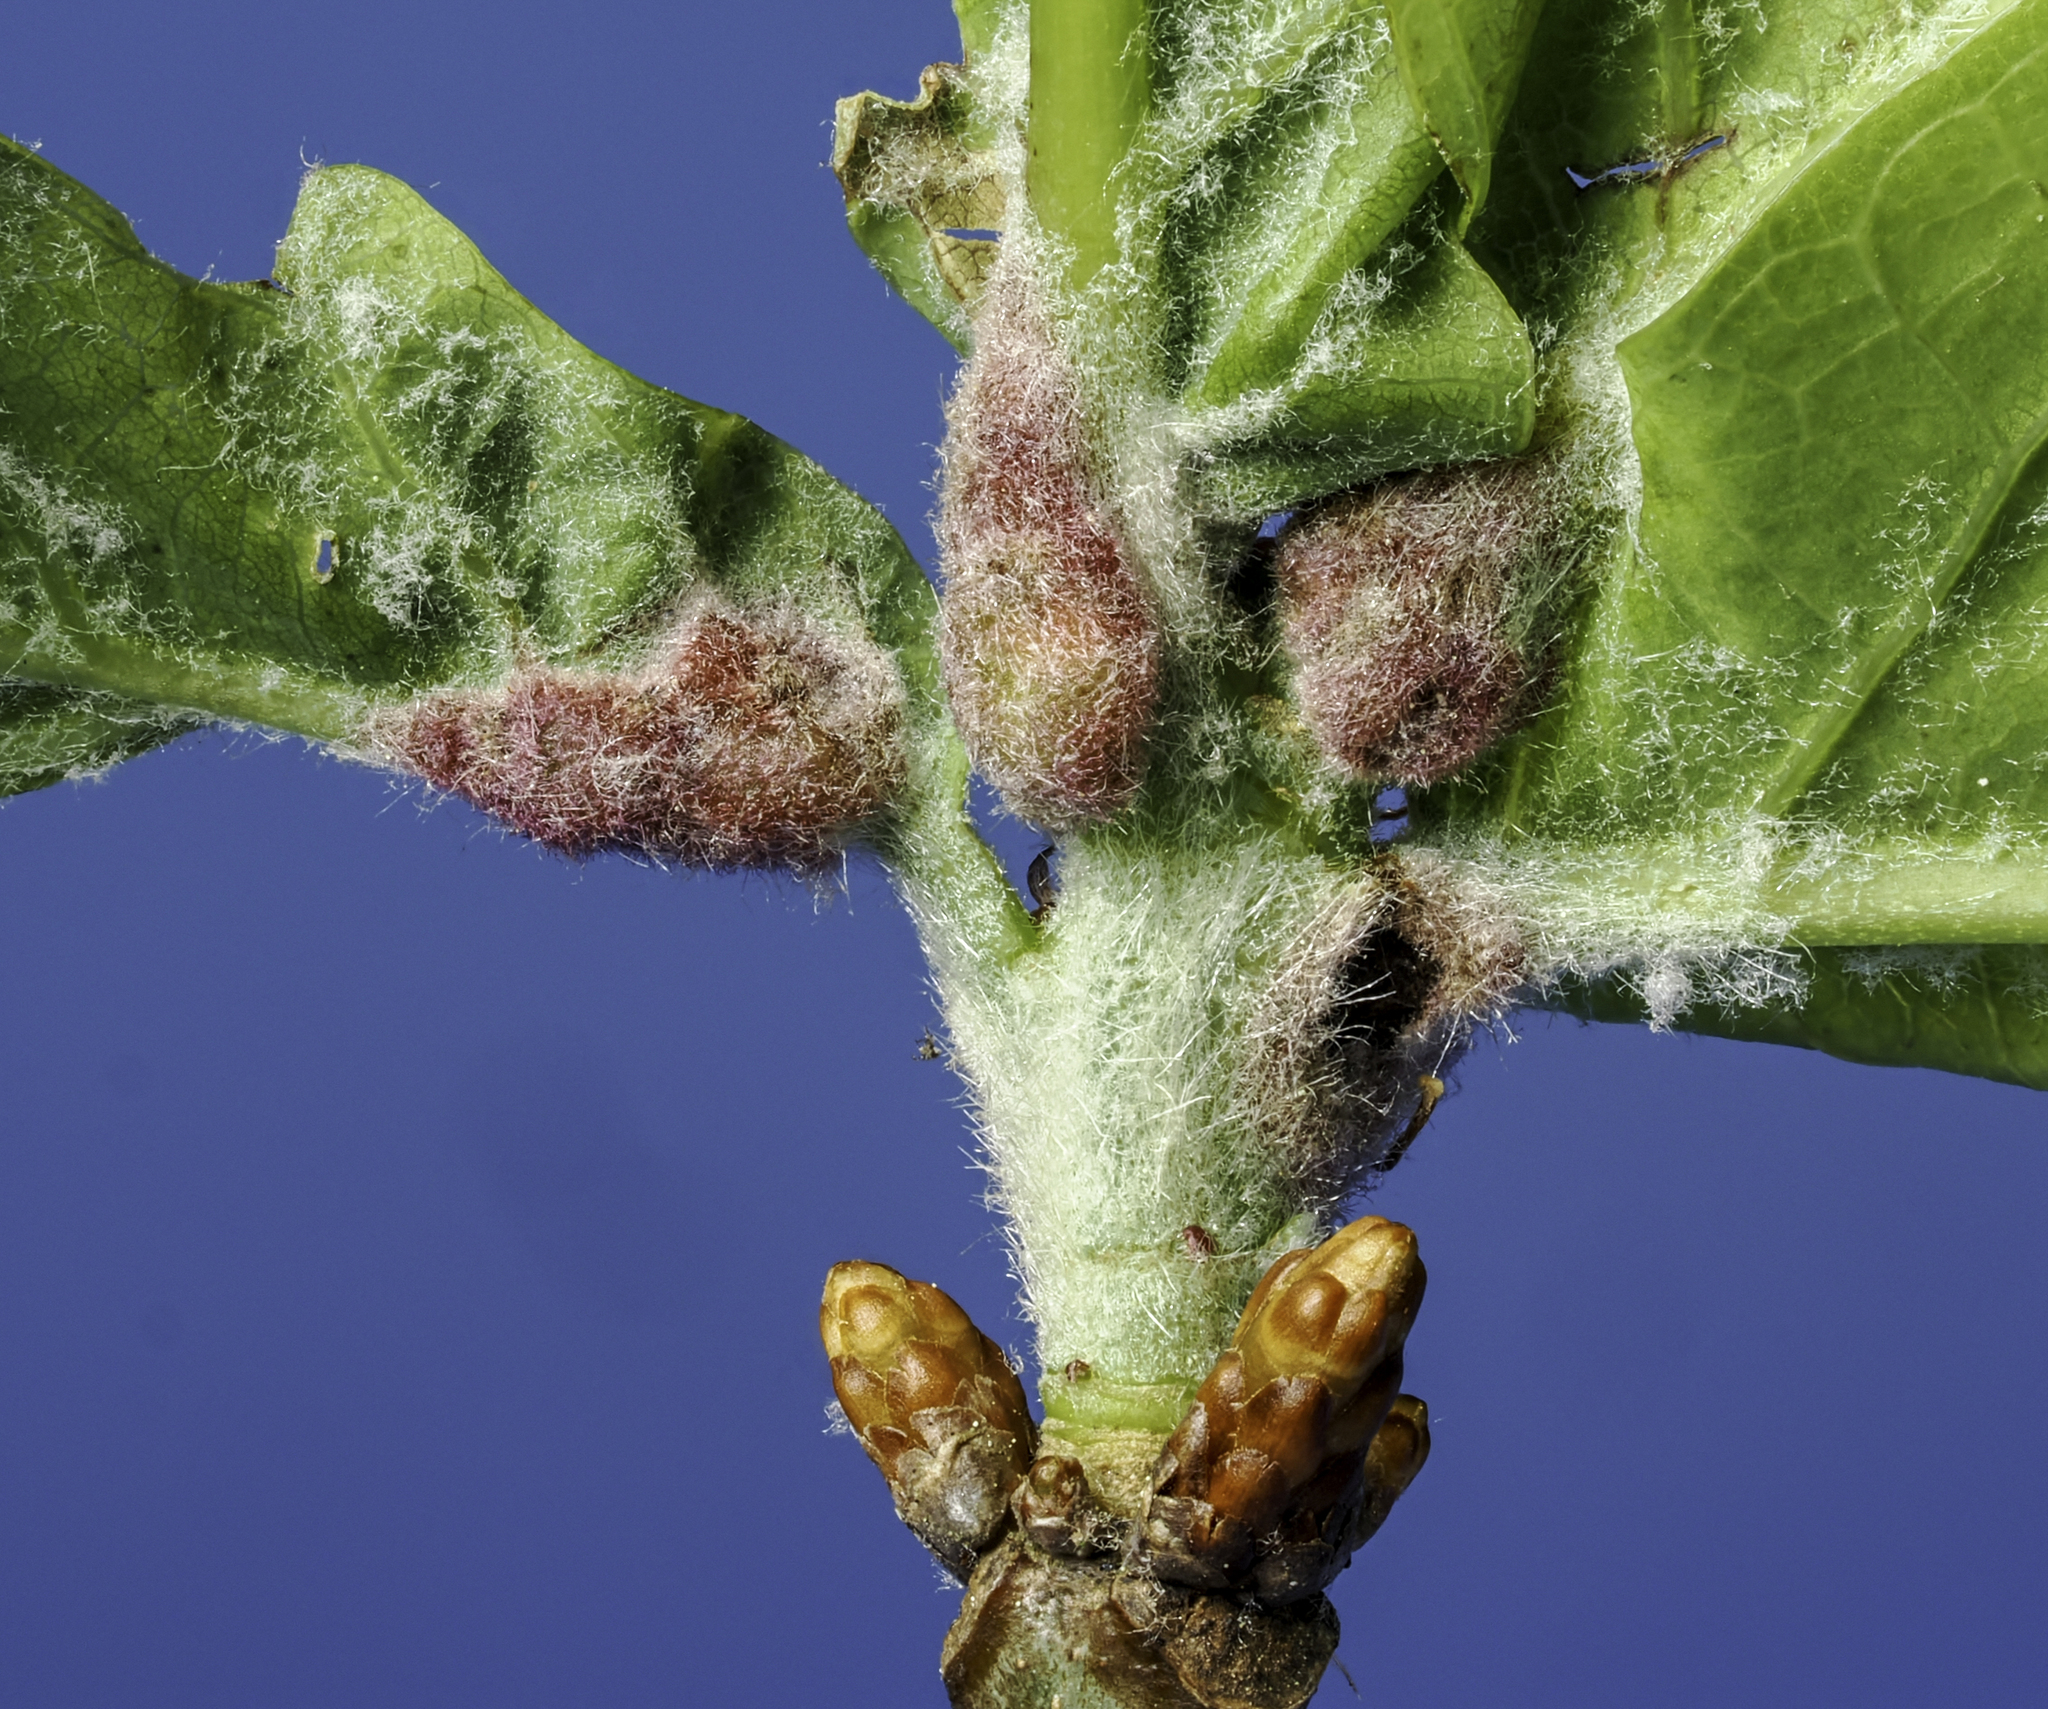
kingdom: Animalia
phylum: Arthropoda
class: Insecta
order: Hymenoptera
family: Cynipidae
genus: Neuroterus
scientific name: Neuroterus minutulus
